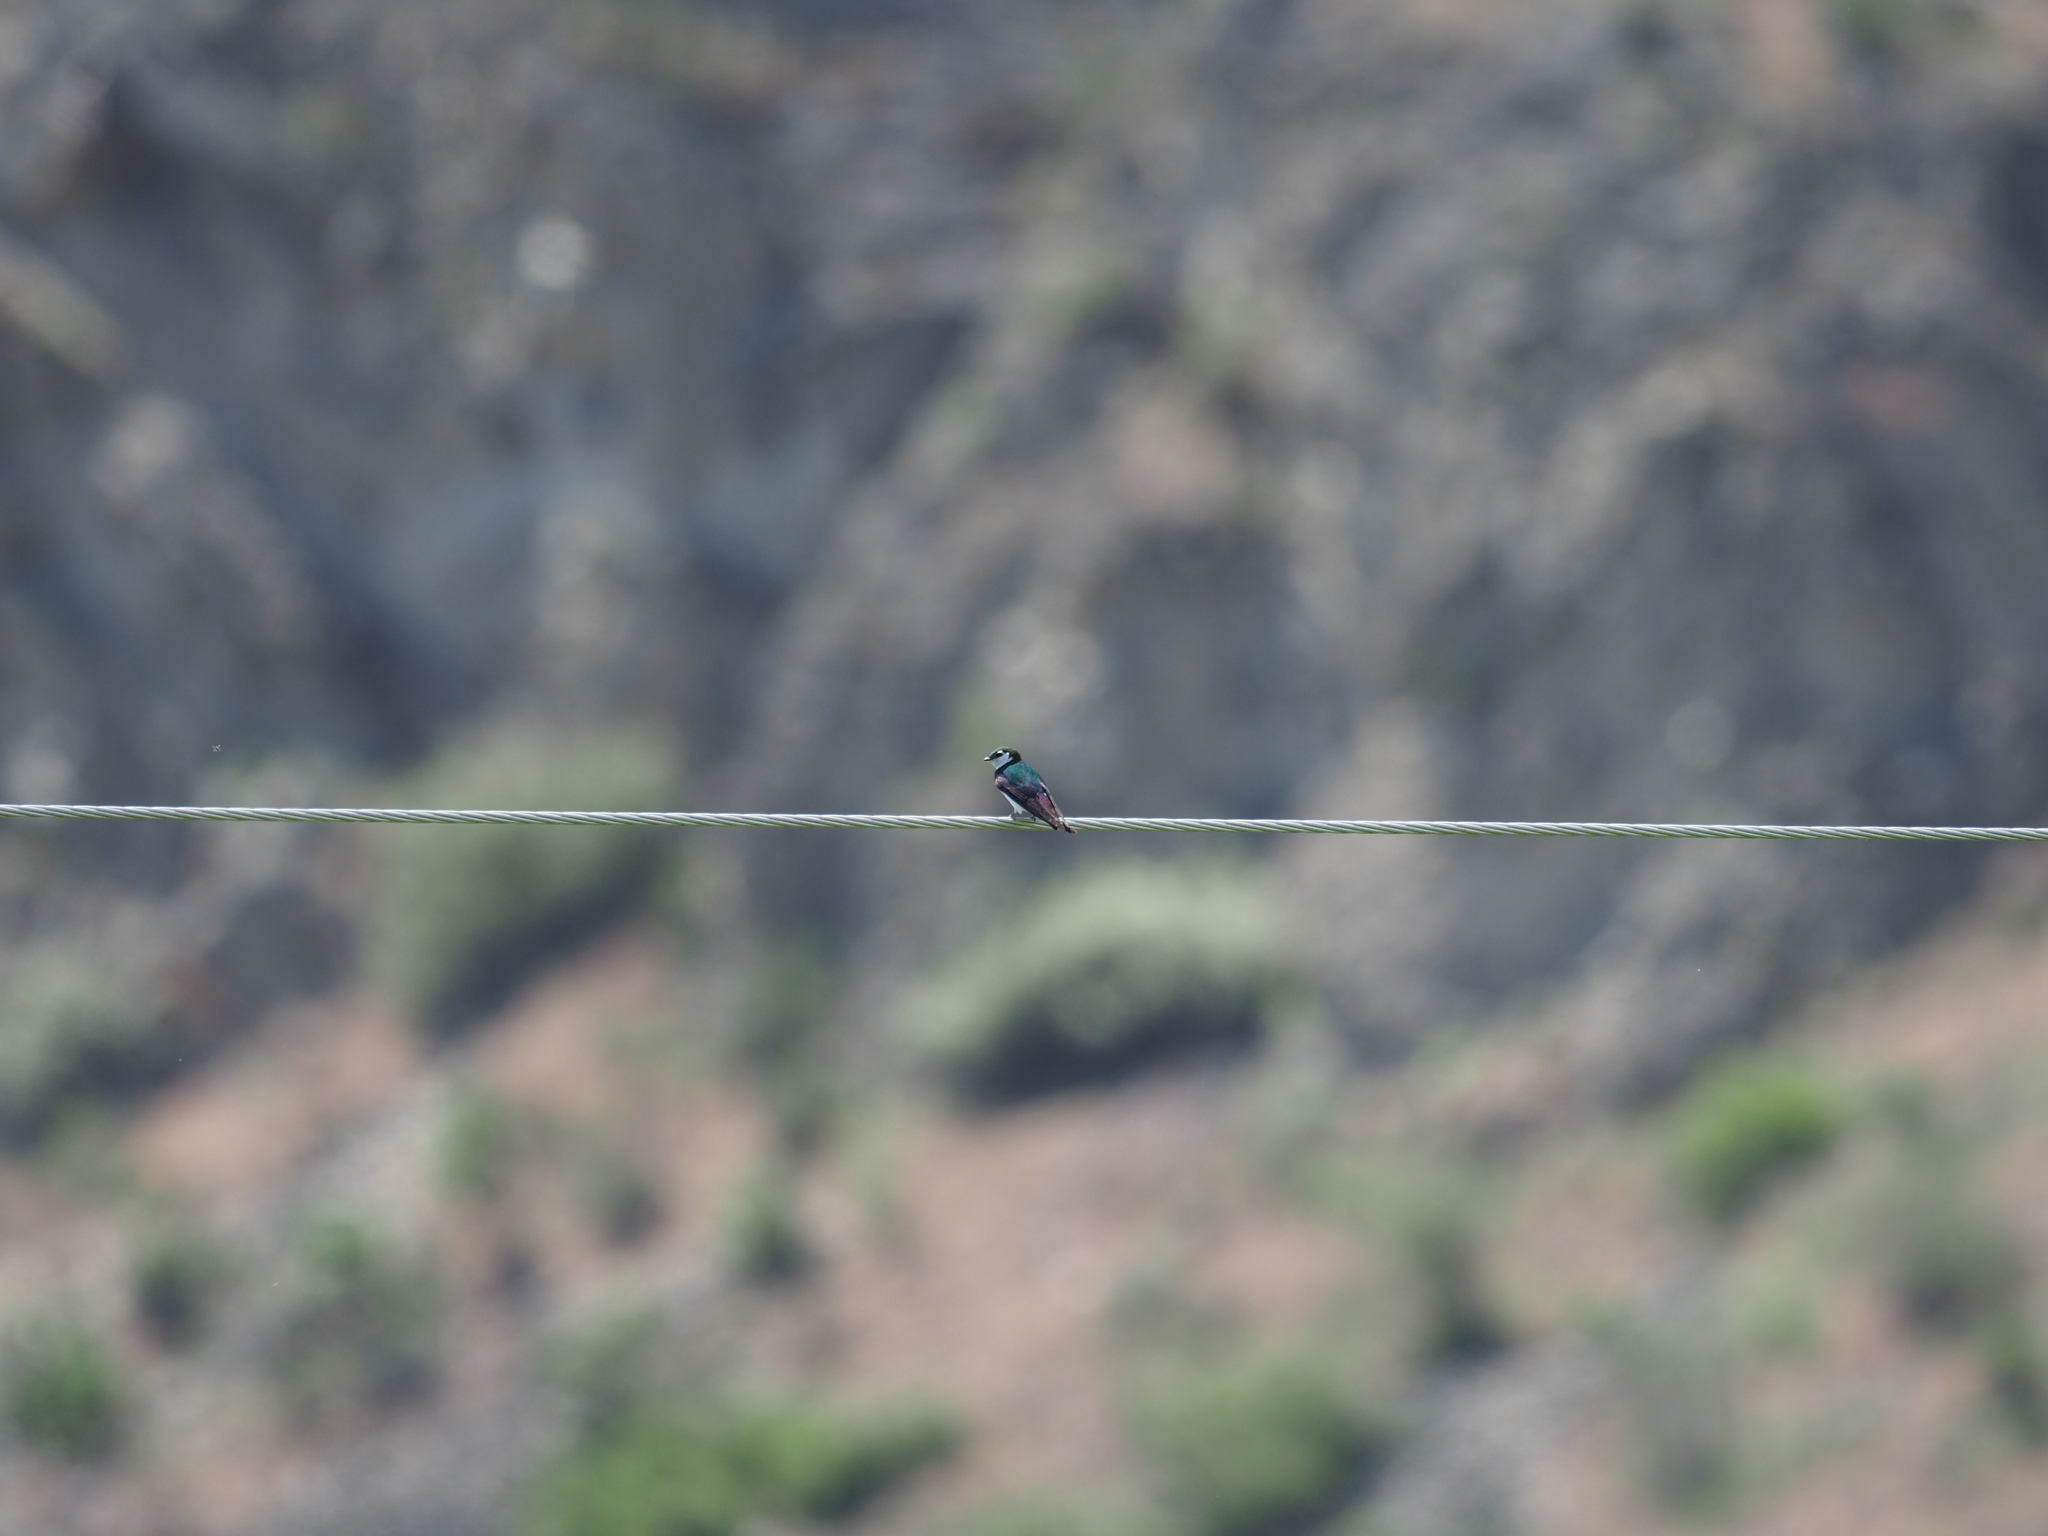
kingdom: Animalia
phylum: Chordata
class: Aves
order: Passeriformes
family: Hirundinidae
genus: Tachycineta
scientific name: Tachycineta thalassina
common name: Violet-green swallow
